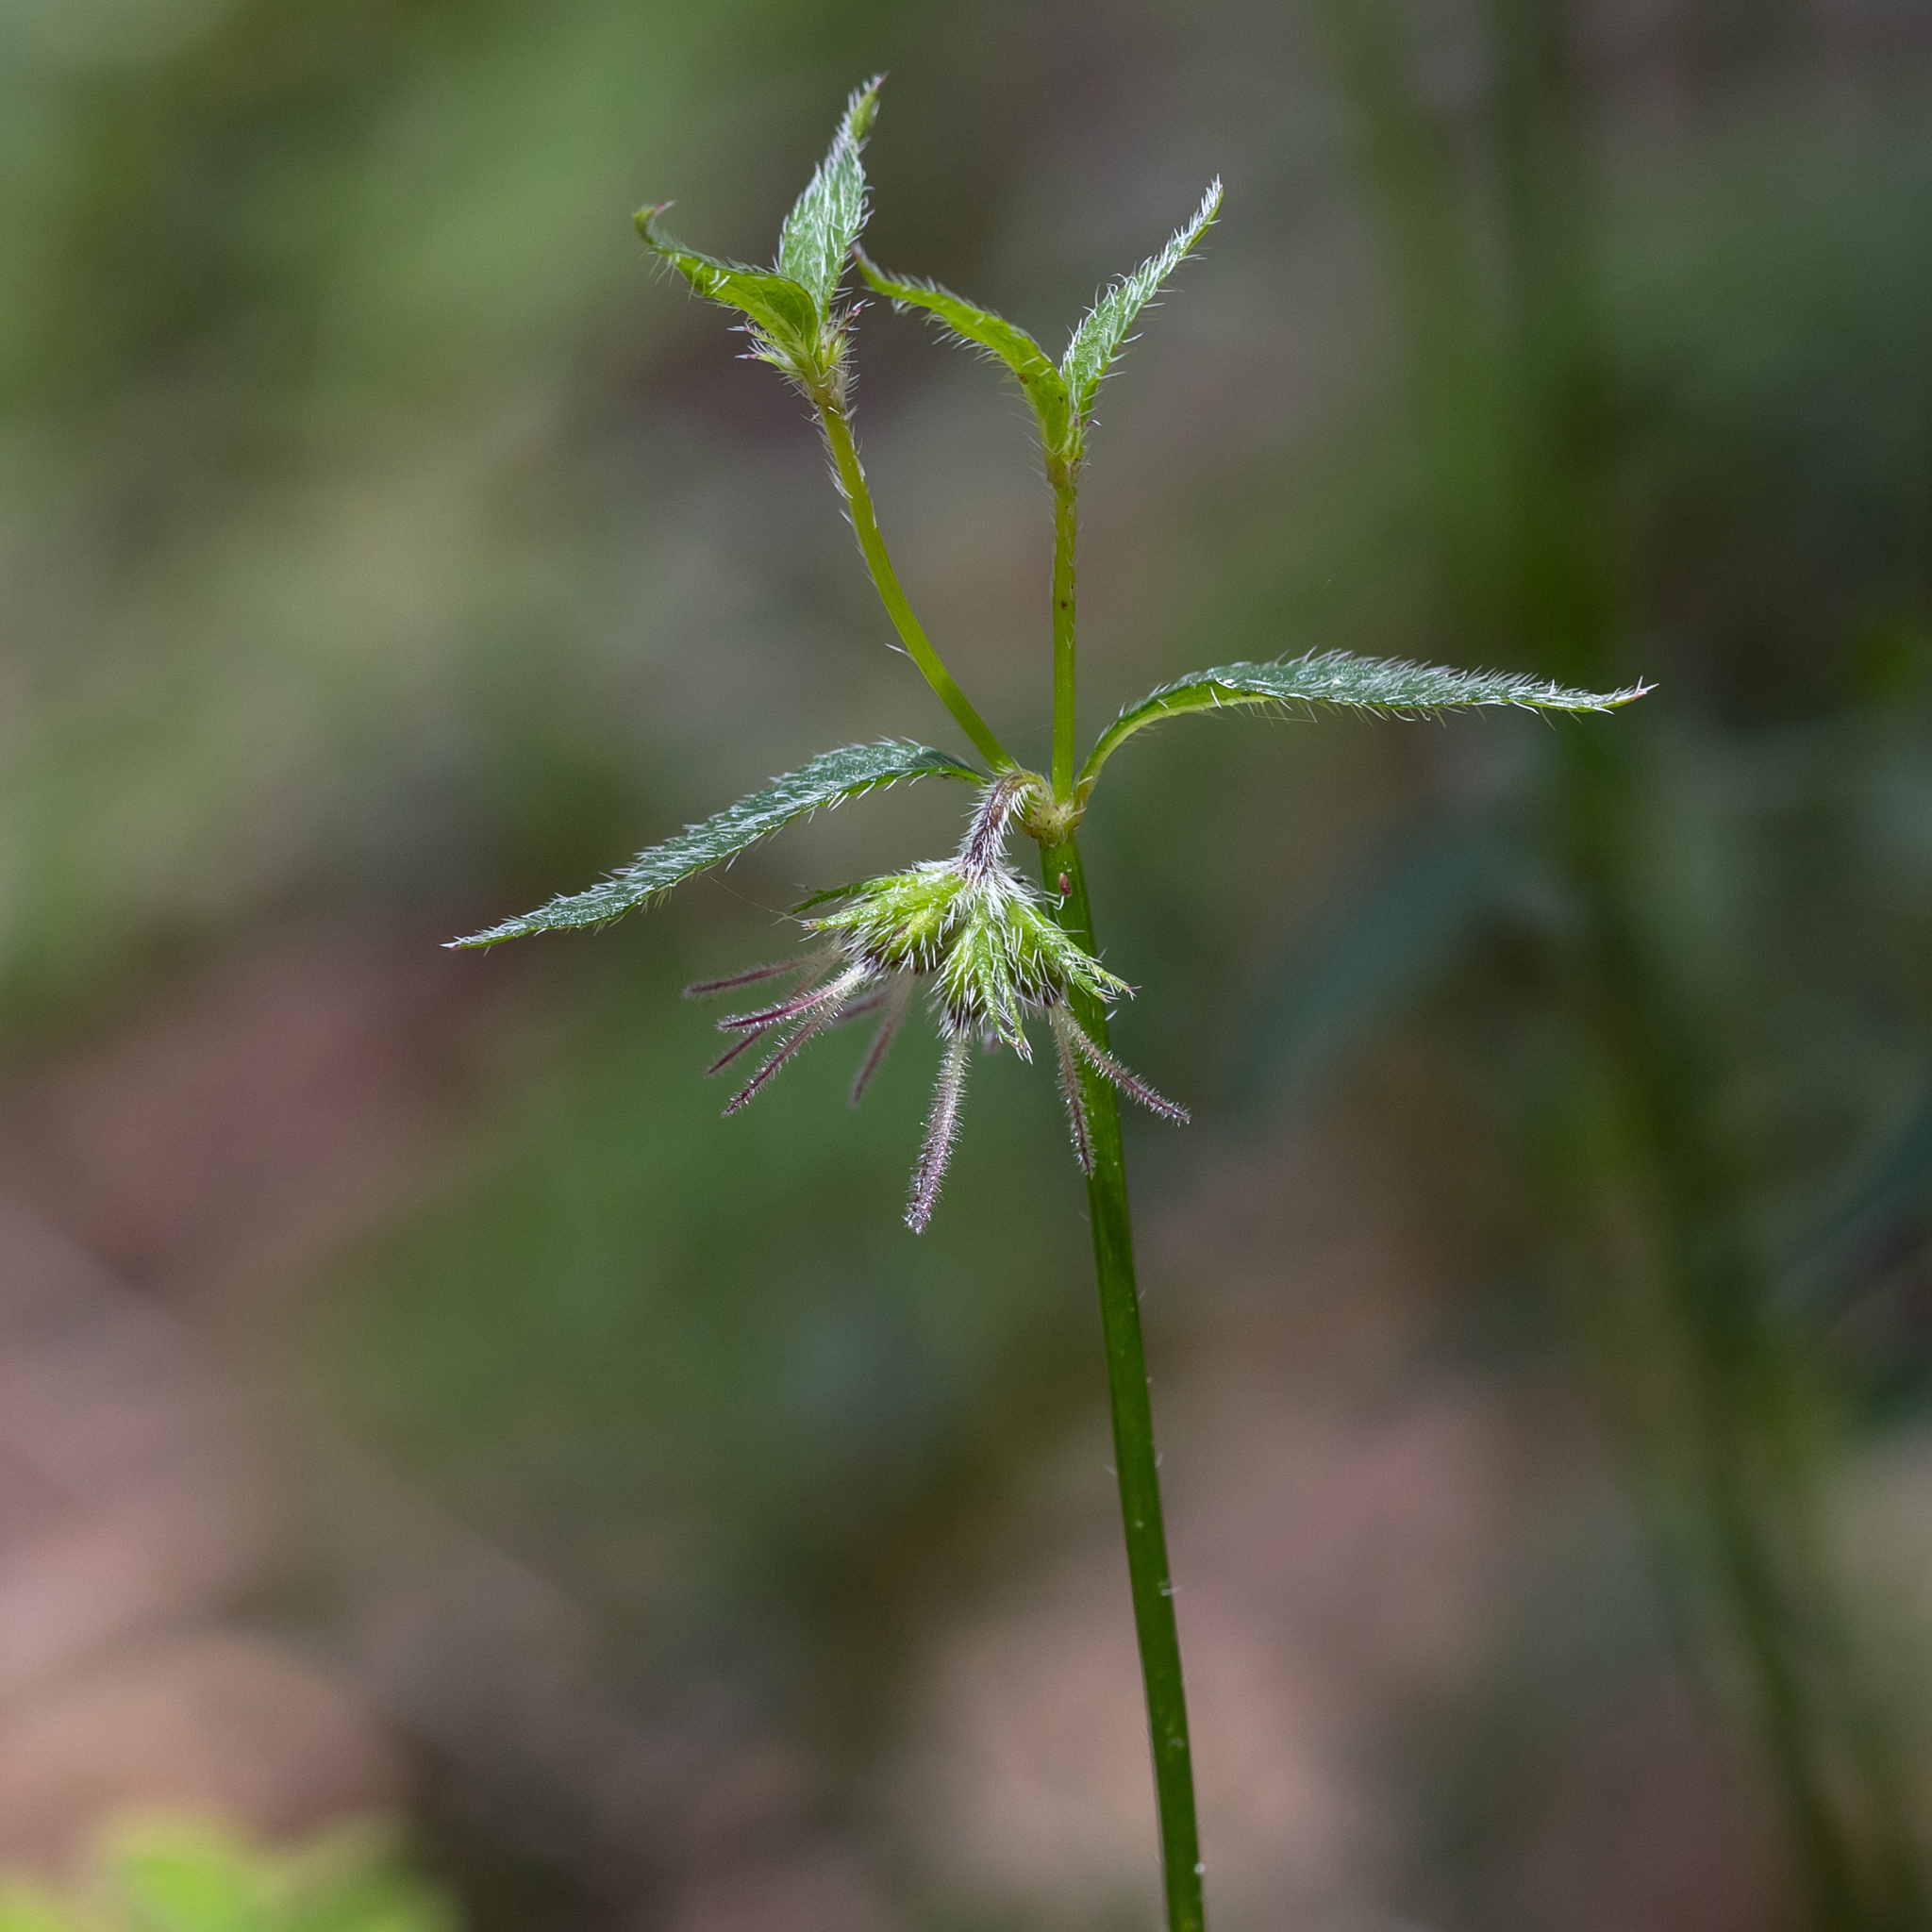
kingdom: Plantae
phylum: Tracheophyta
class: Magnoliopsida
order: Gentianales
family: Rubiaceae
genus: Opercularia
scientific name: Opercularia hispidula
